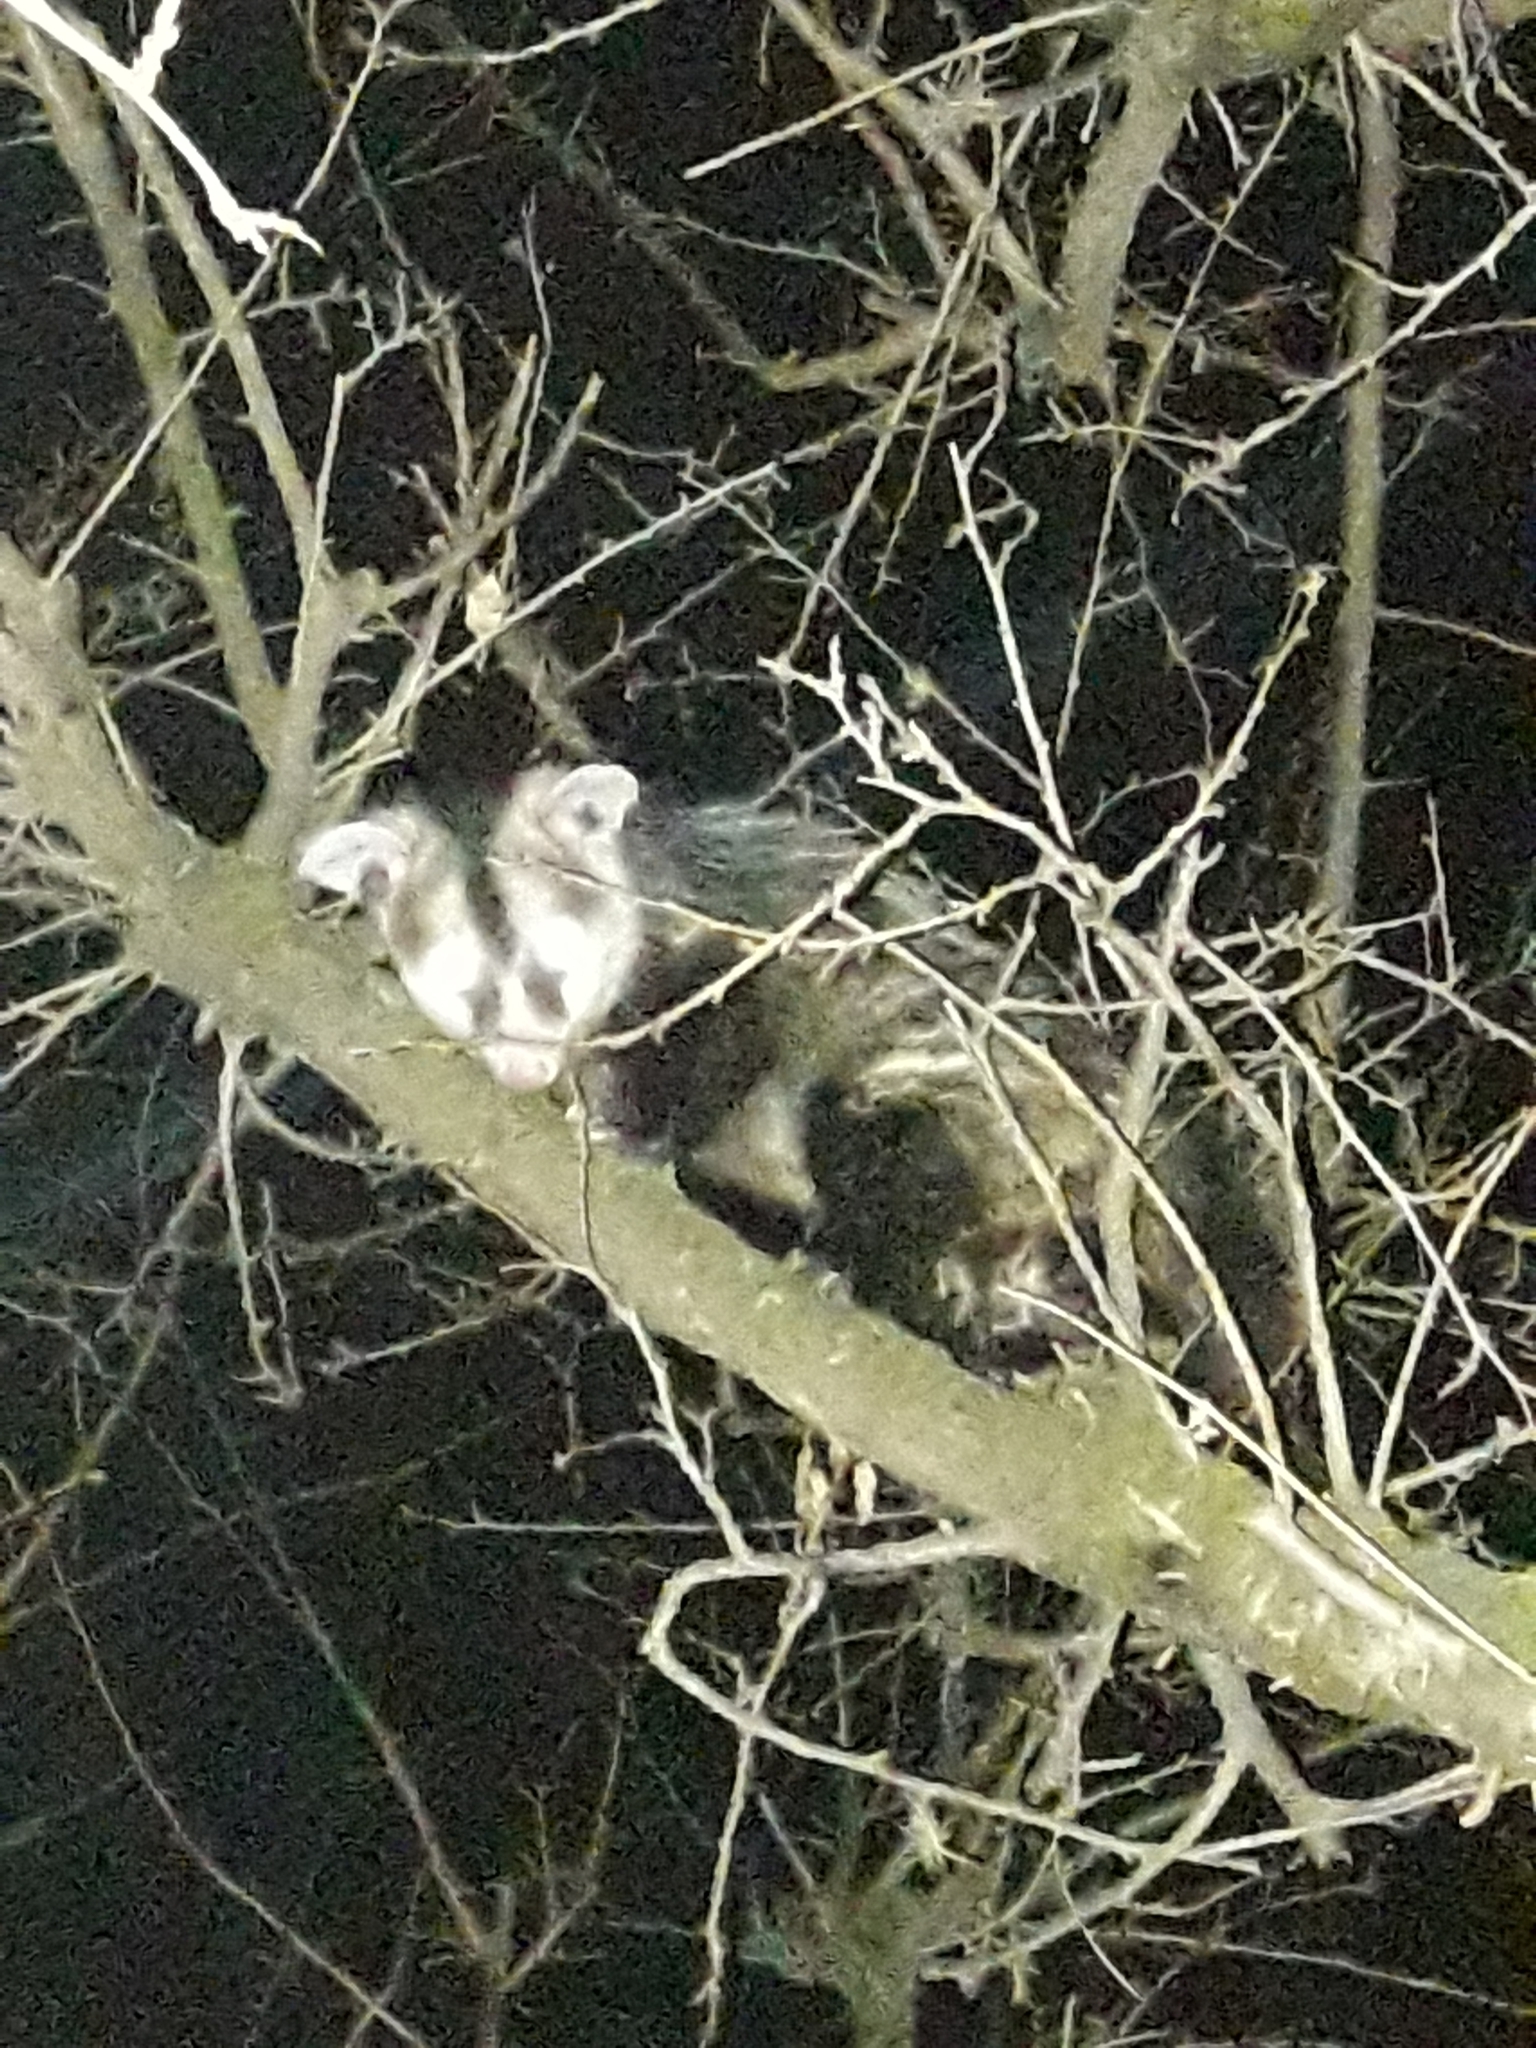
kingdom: Animalia
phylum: Chordata
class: Mammalia
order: Didelphimorphia
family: Didelphidae
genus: Didelphis
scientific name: Didelphis albiventris
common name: White-eared opossum
